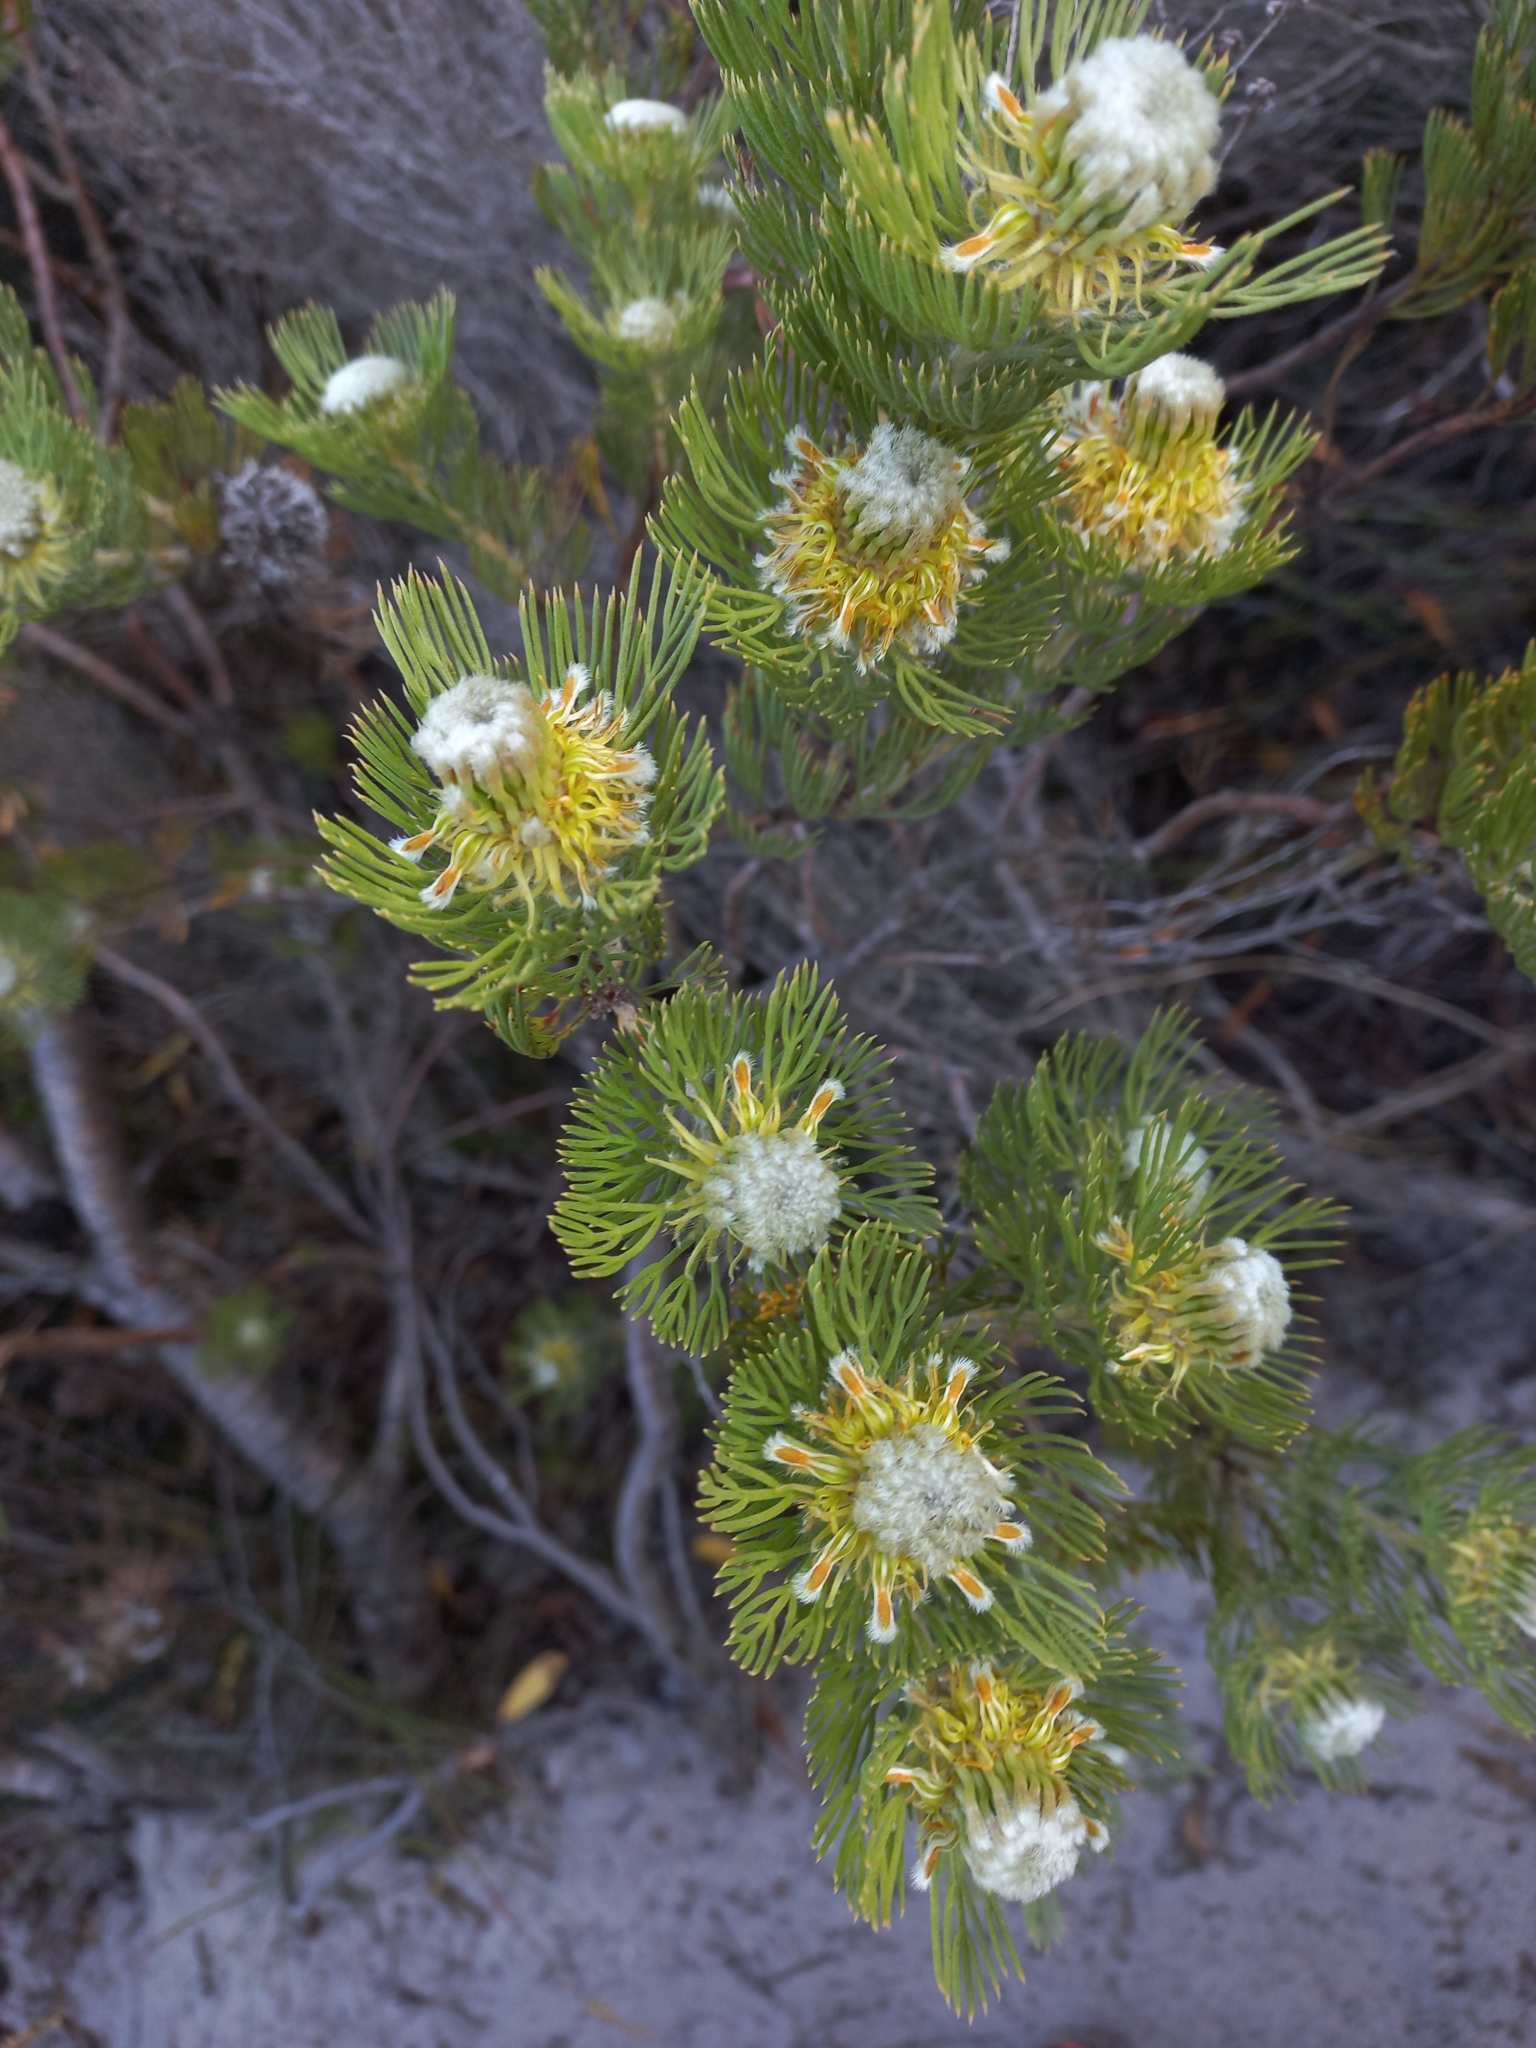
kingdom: Plantae
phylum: Tracheophyta
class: Magnoliopsida
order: Proteales
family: Proteaceae
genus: Serruria
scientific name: Serruria villosa
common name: Golden spiderhead
